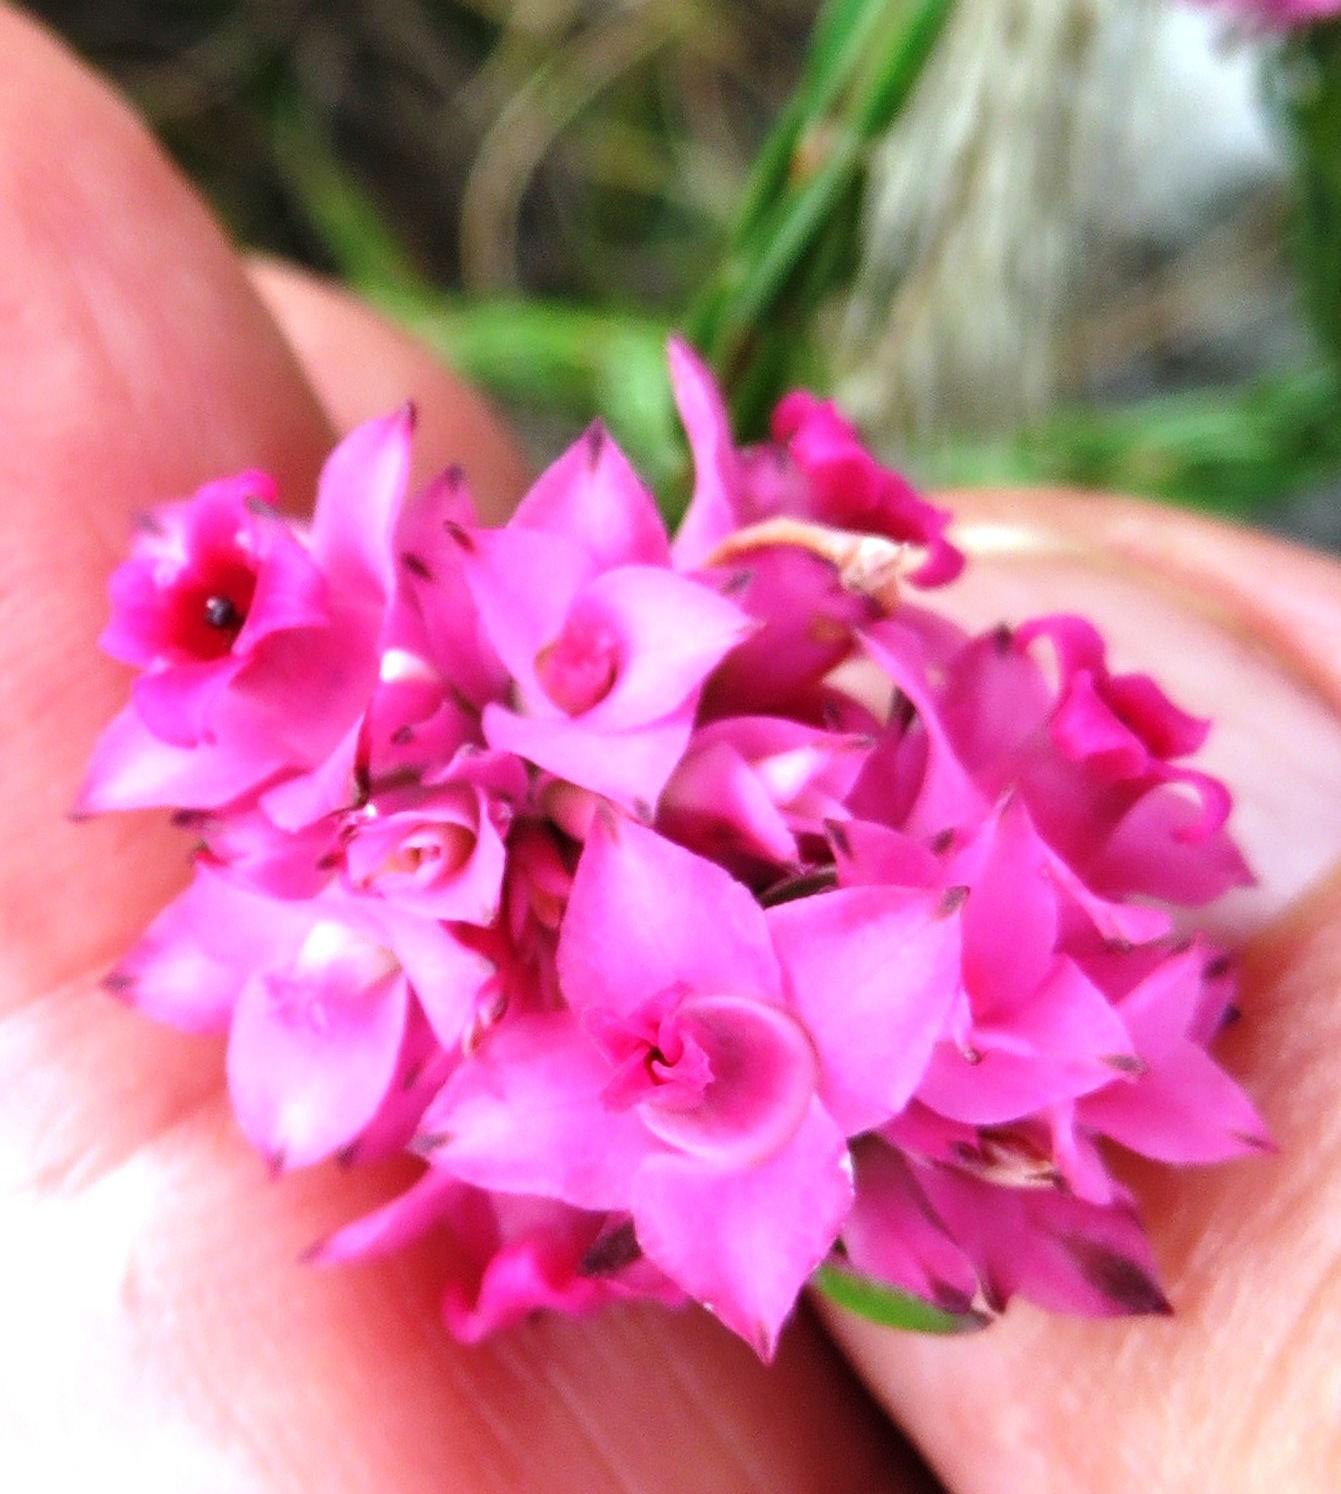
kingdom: Plantae
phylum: Tracheophyta
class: Magnoliopsida
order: Ericales
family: Ericaceae
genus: Erica
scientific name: Erica corifolia
